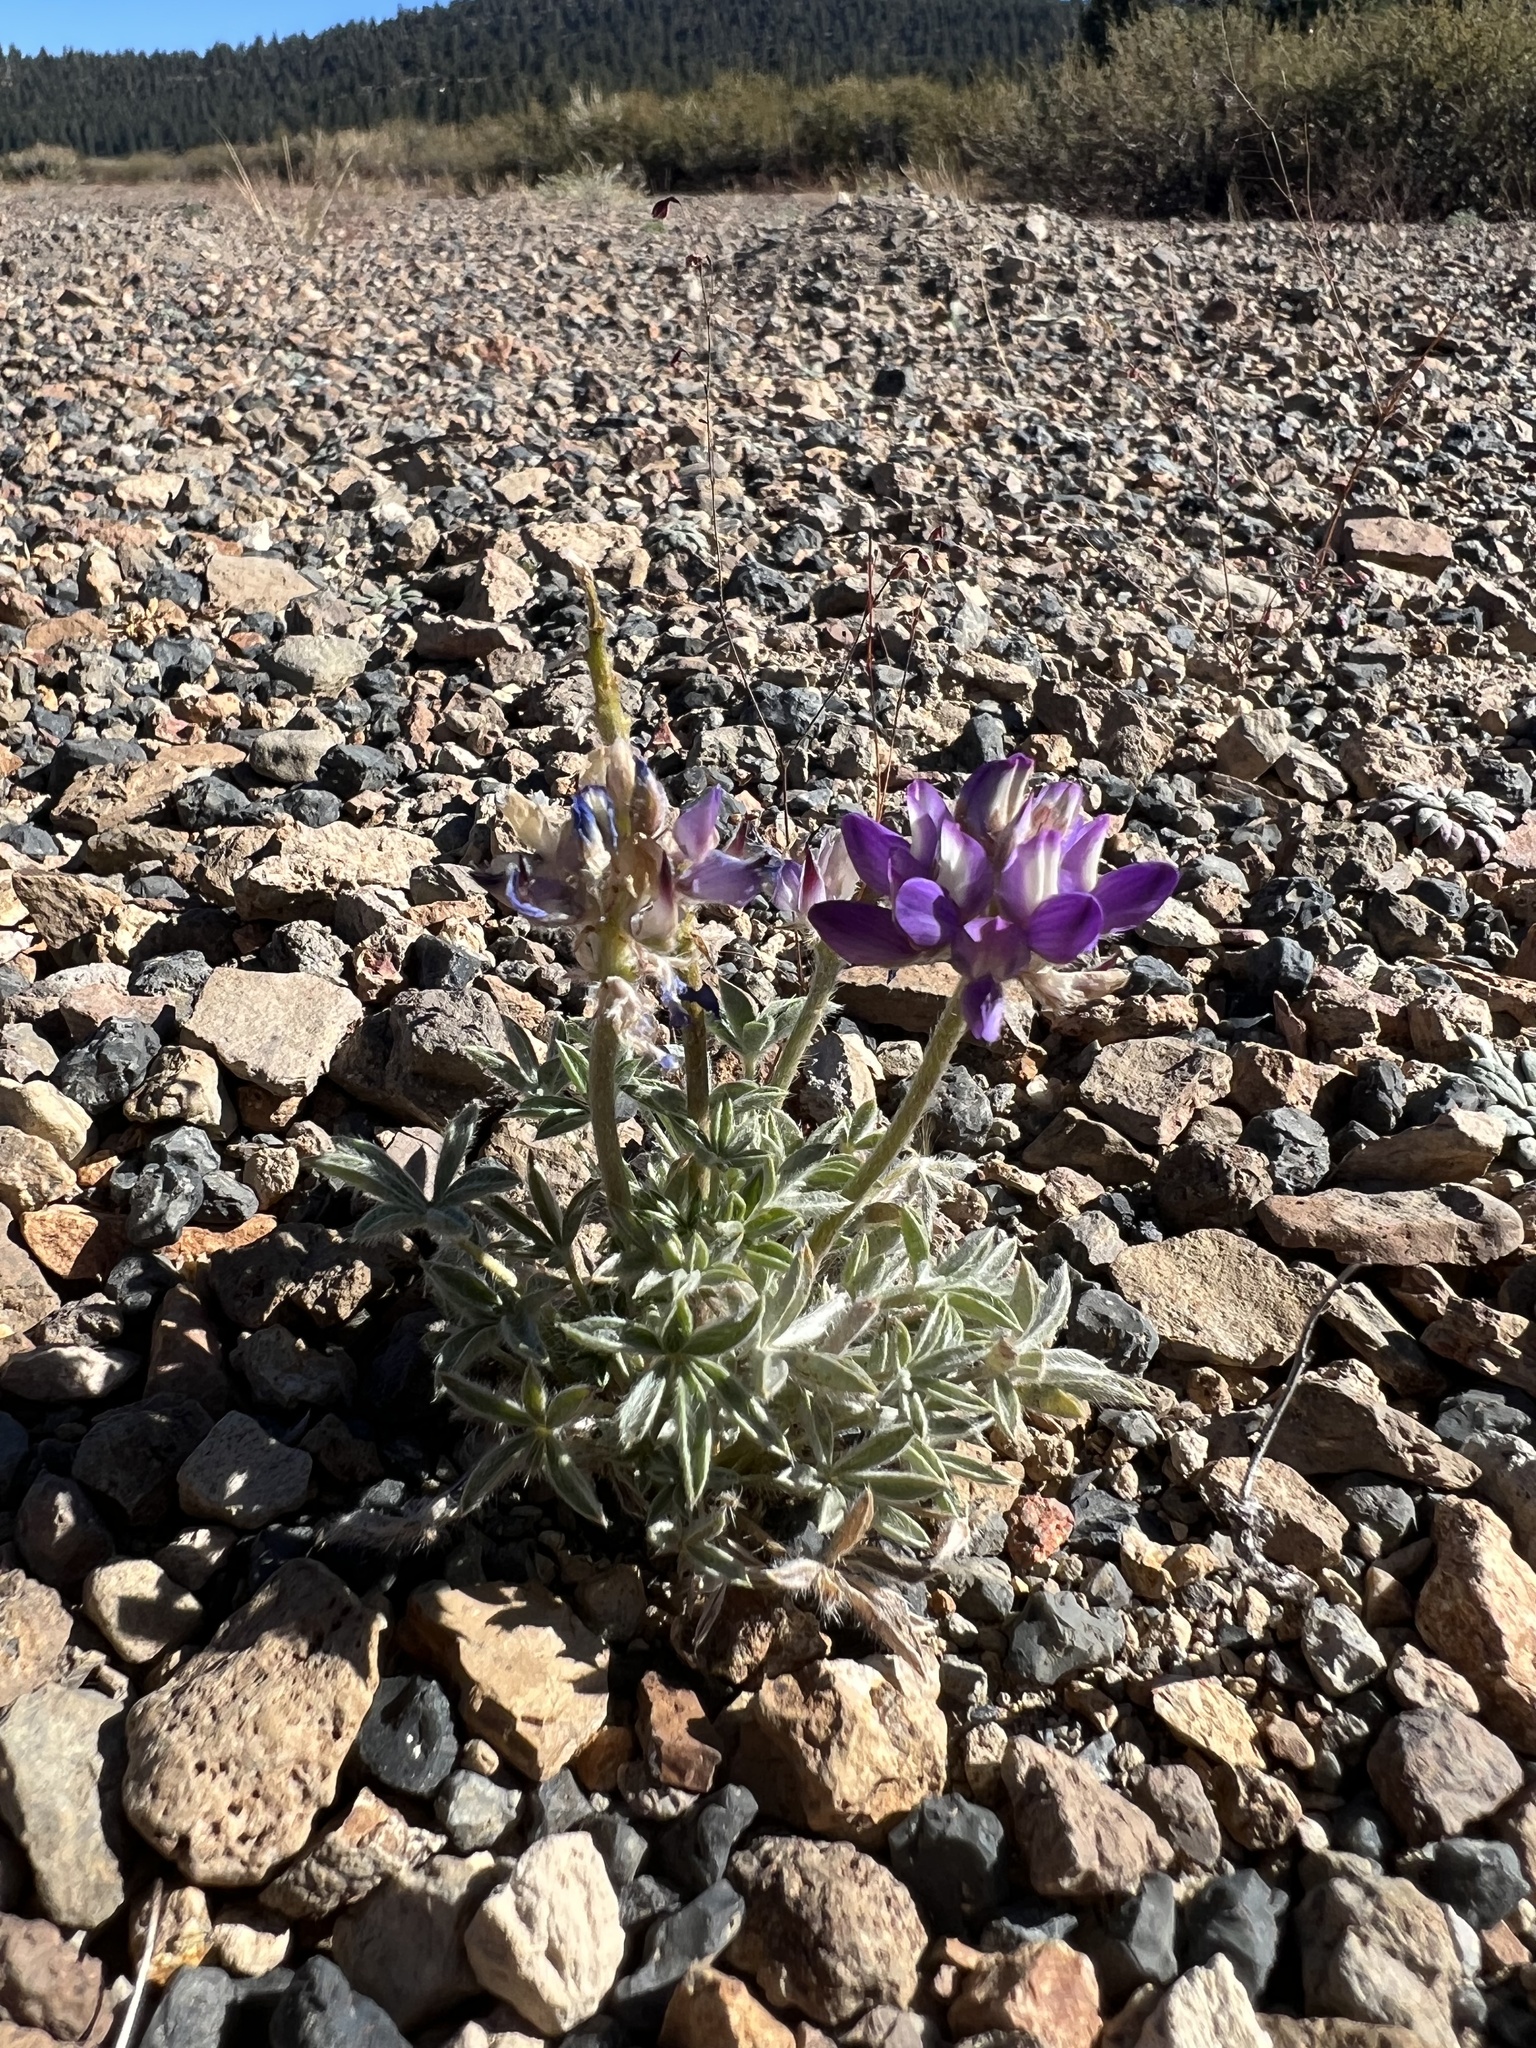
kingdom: Plantae
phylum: Tracheophyta
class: Magnoliopsida
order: Fabales
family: Fabaceae
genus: Lupinus
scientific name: Lupinus duranii
